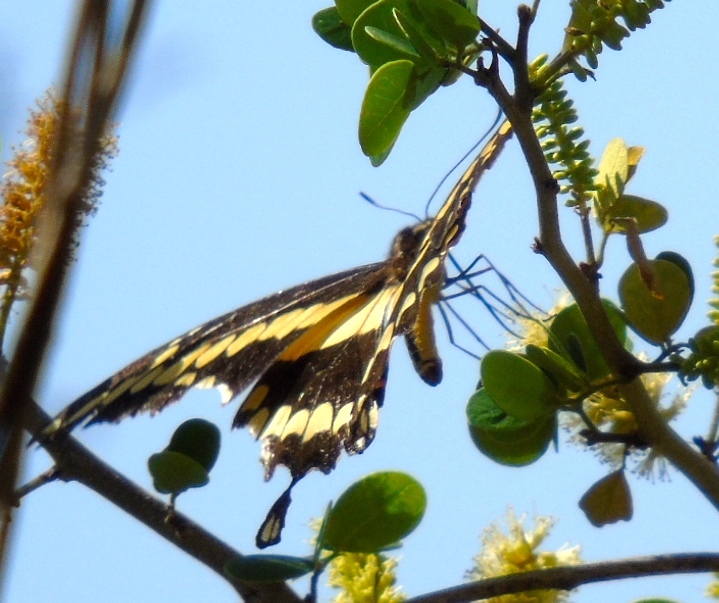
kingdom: Animalia
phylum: Arthropoda
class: Insecta
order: Lepidoptera
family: Papilionidae
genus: Papilio
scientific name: Papilio rumiko
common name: Western giant swallowtail
